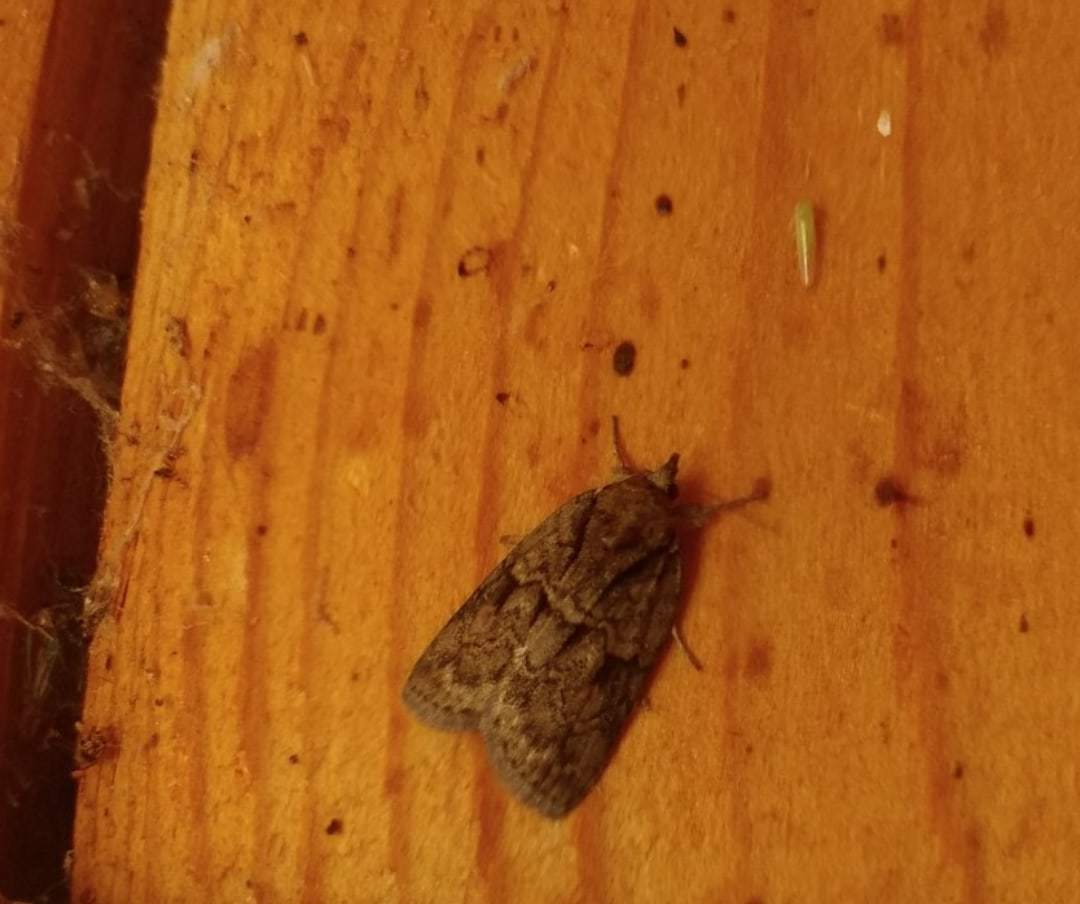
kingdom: Animalia
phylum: Arthropoda
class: Insecta
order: Lepidoptera
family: Nolidae
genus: Nycteola
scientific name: Nycteola degenerana
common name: Swallow nycteoline
